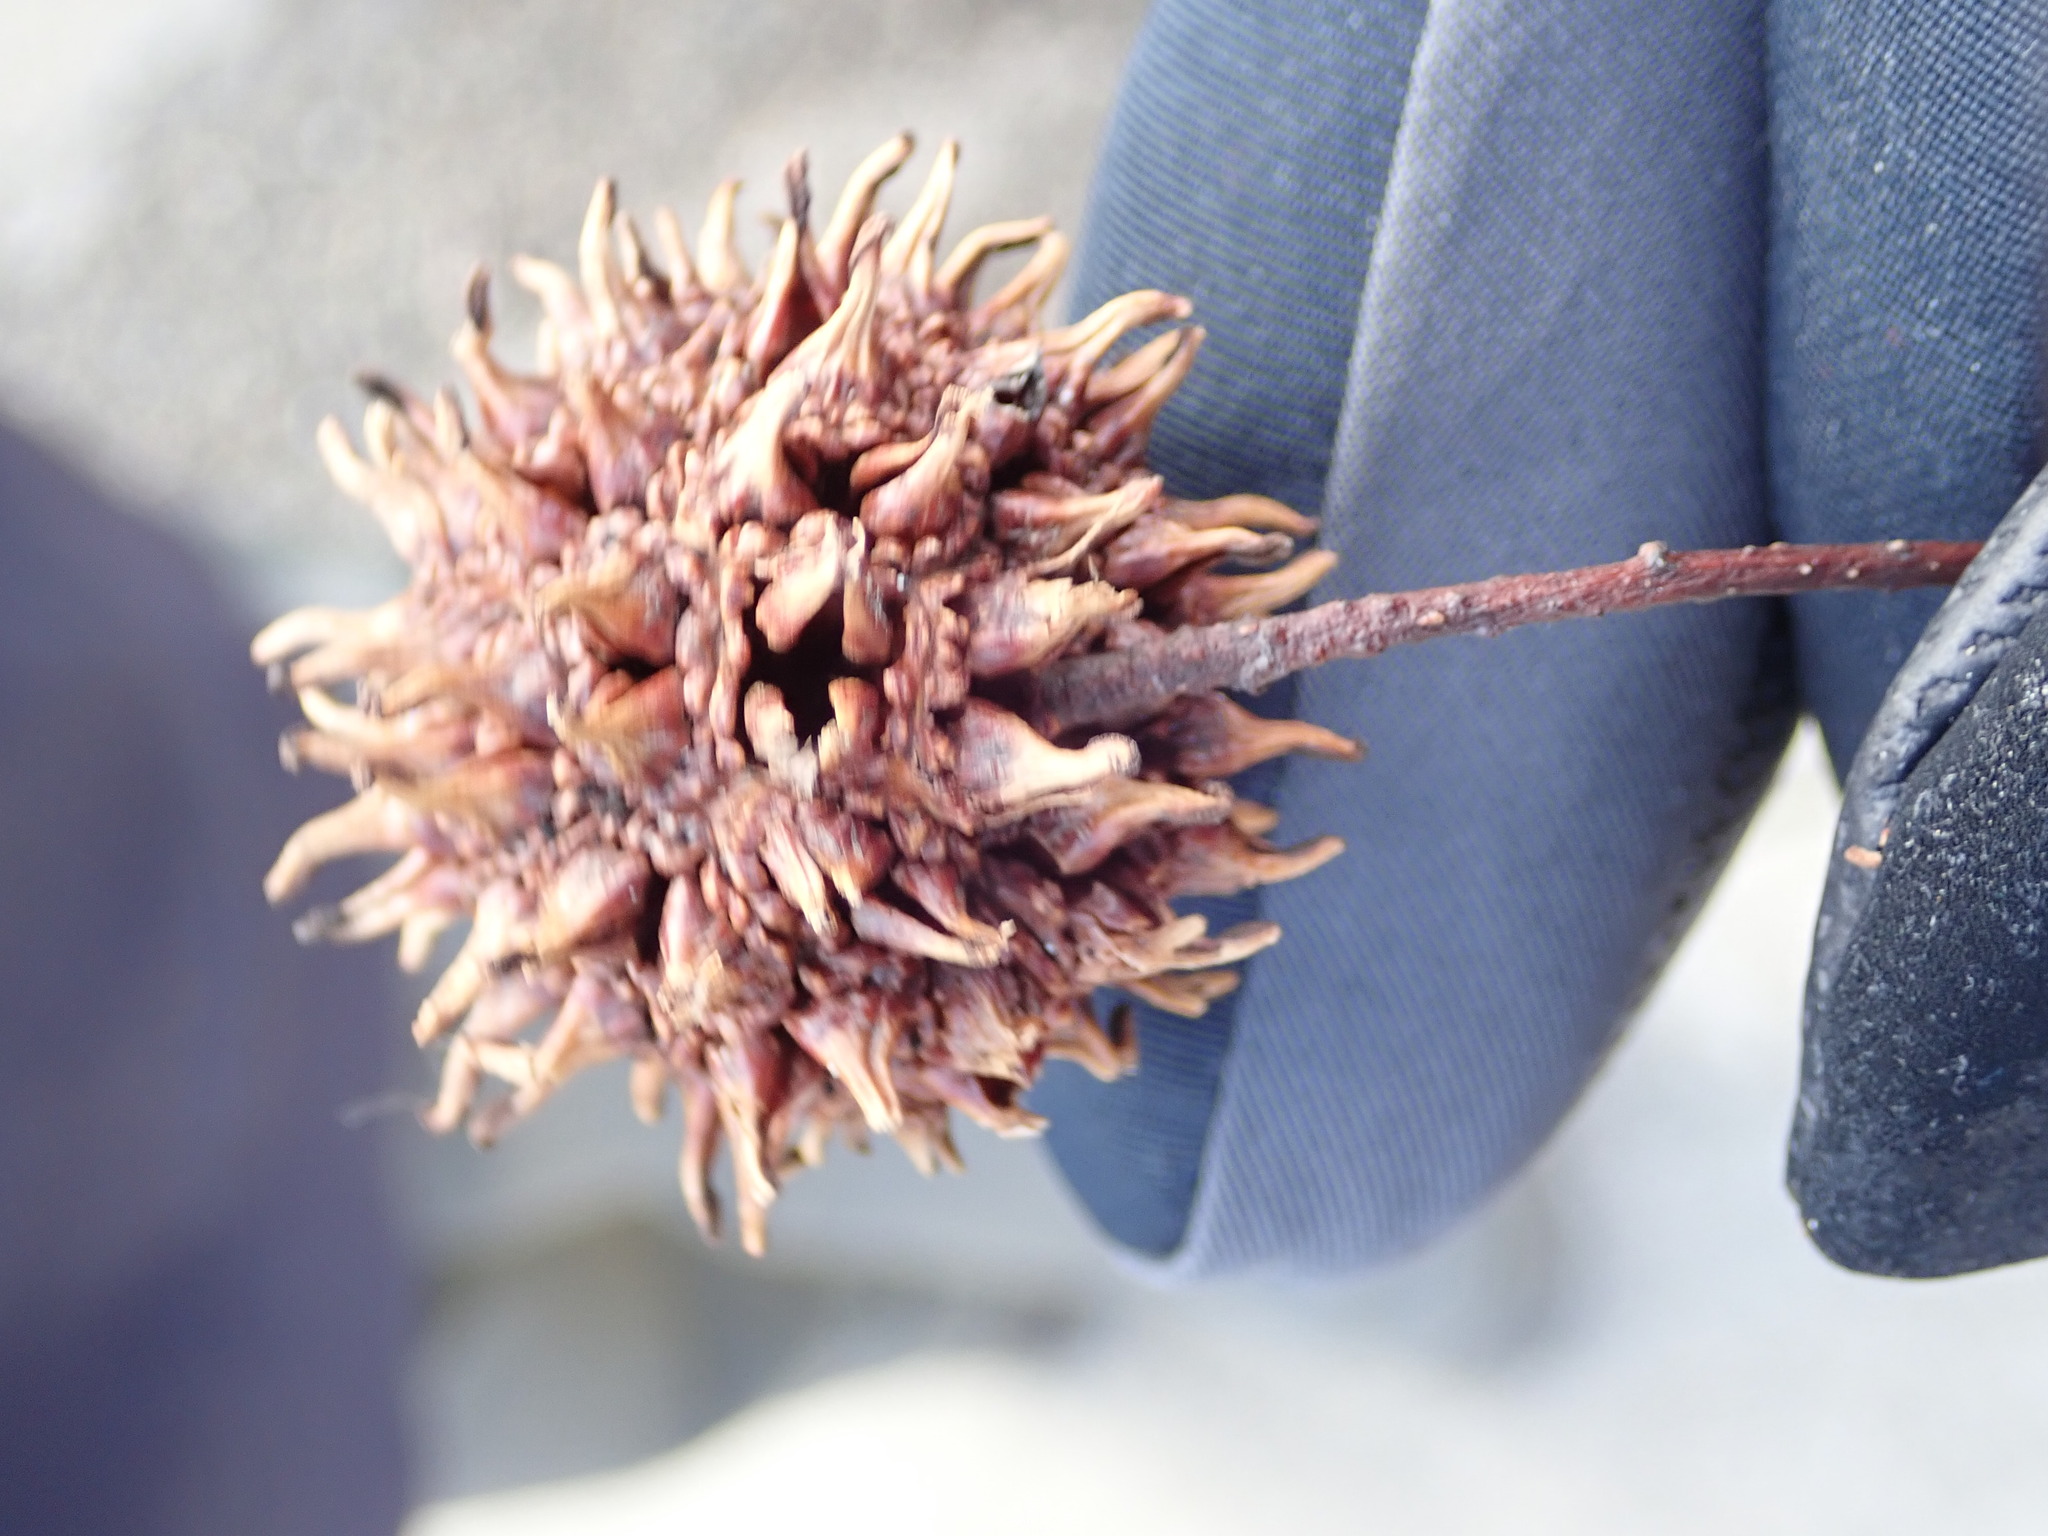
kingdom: Plantae
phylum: Tracheophyta
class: Magnoliopsida
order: Saxifragales
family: Altingiaceae
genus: Liquidambar
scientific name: Liquidambar styraciflua
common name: Sweet gum
